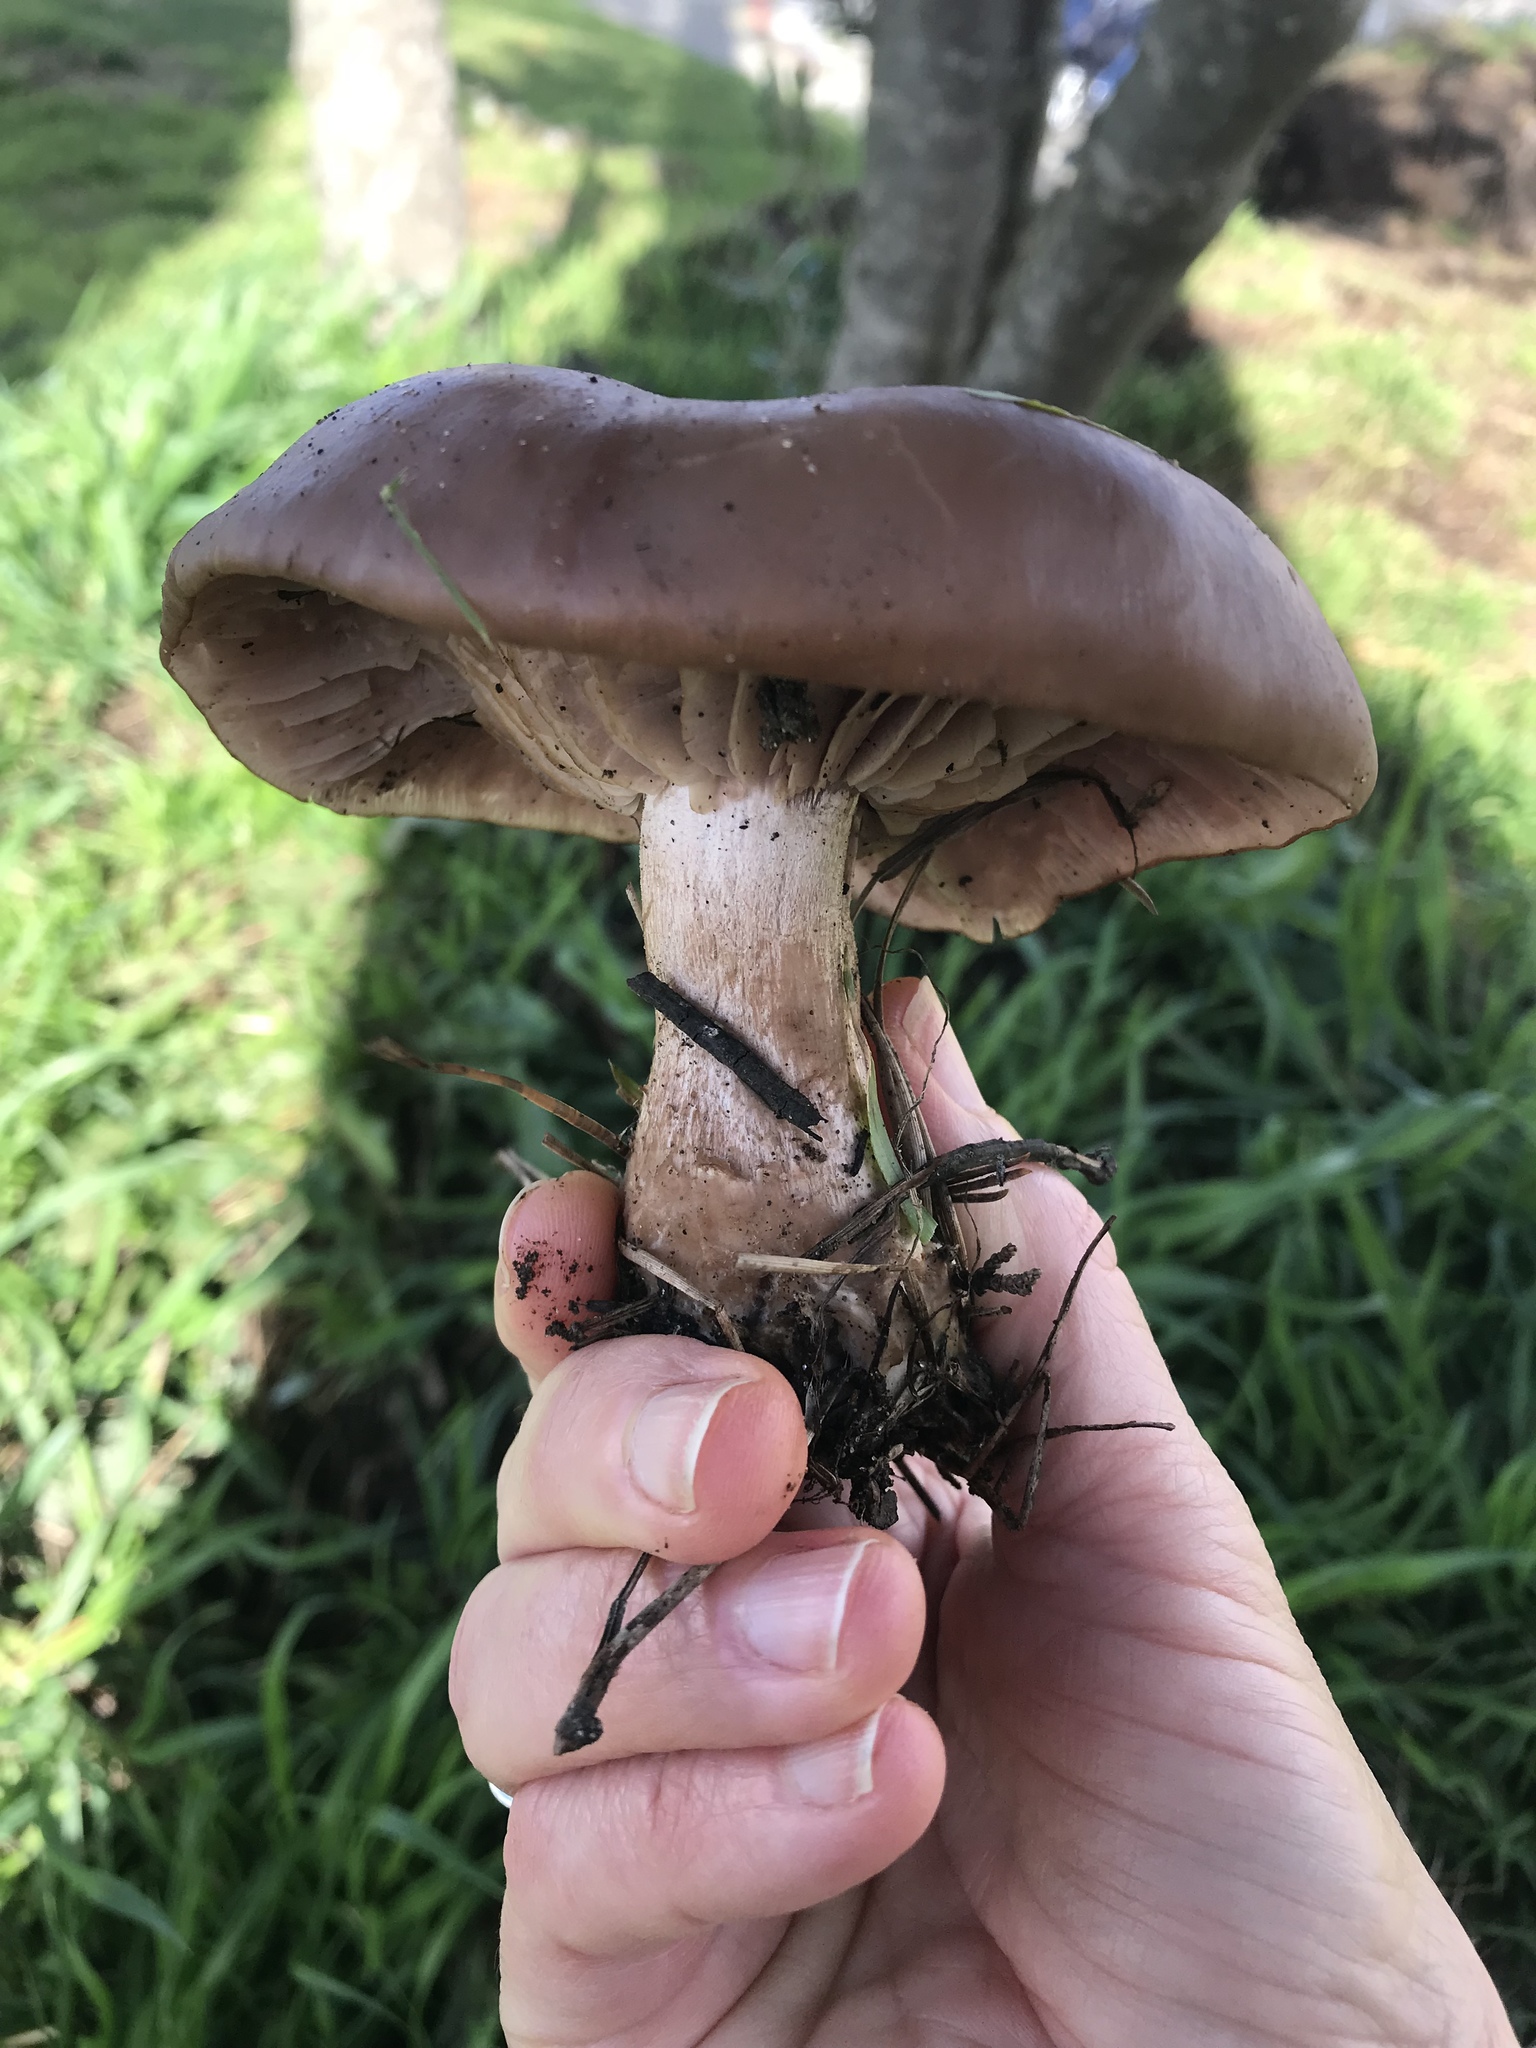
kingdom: Fungi
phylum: Basidiomycota
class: Agaricomycetes
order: Agaricales
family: Tricholomataceae
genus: Collybia
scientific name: Collybia
